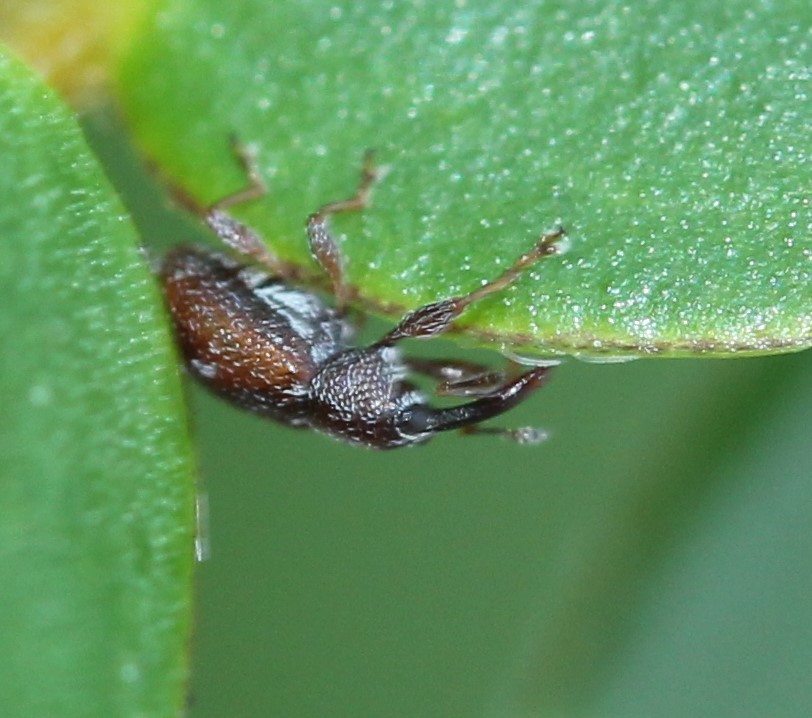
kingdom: Animalia
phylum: Arthropoda
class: Insecta
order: Coleoptera
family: Curculionidae
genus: Anthonomus
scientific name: Anthonomus vespertinus
